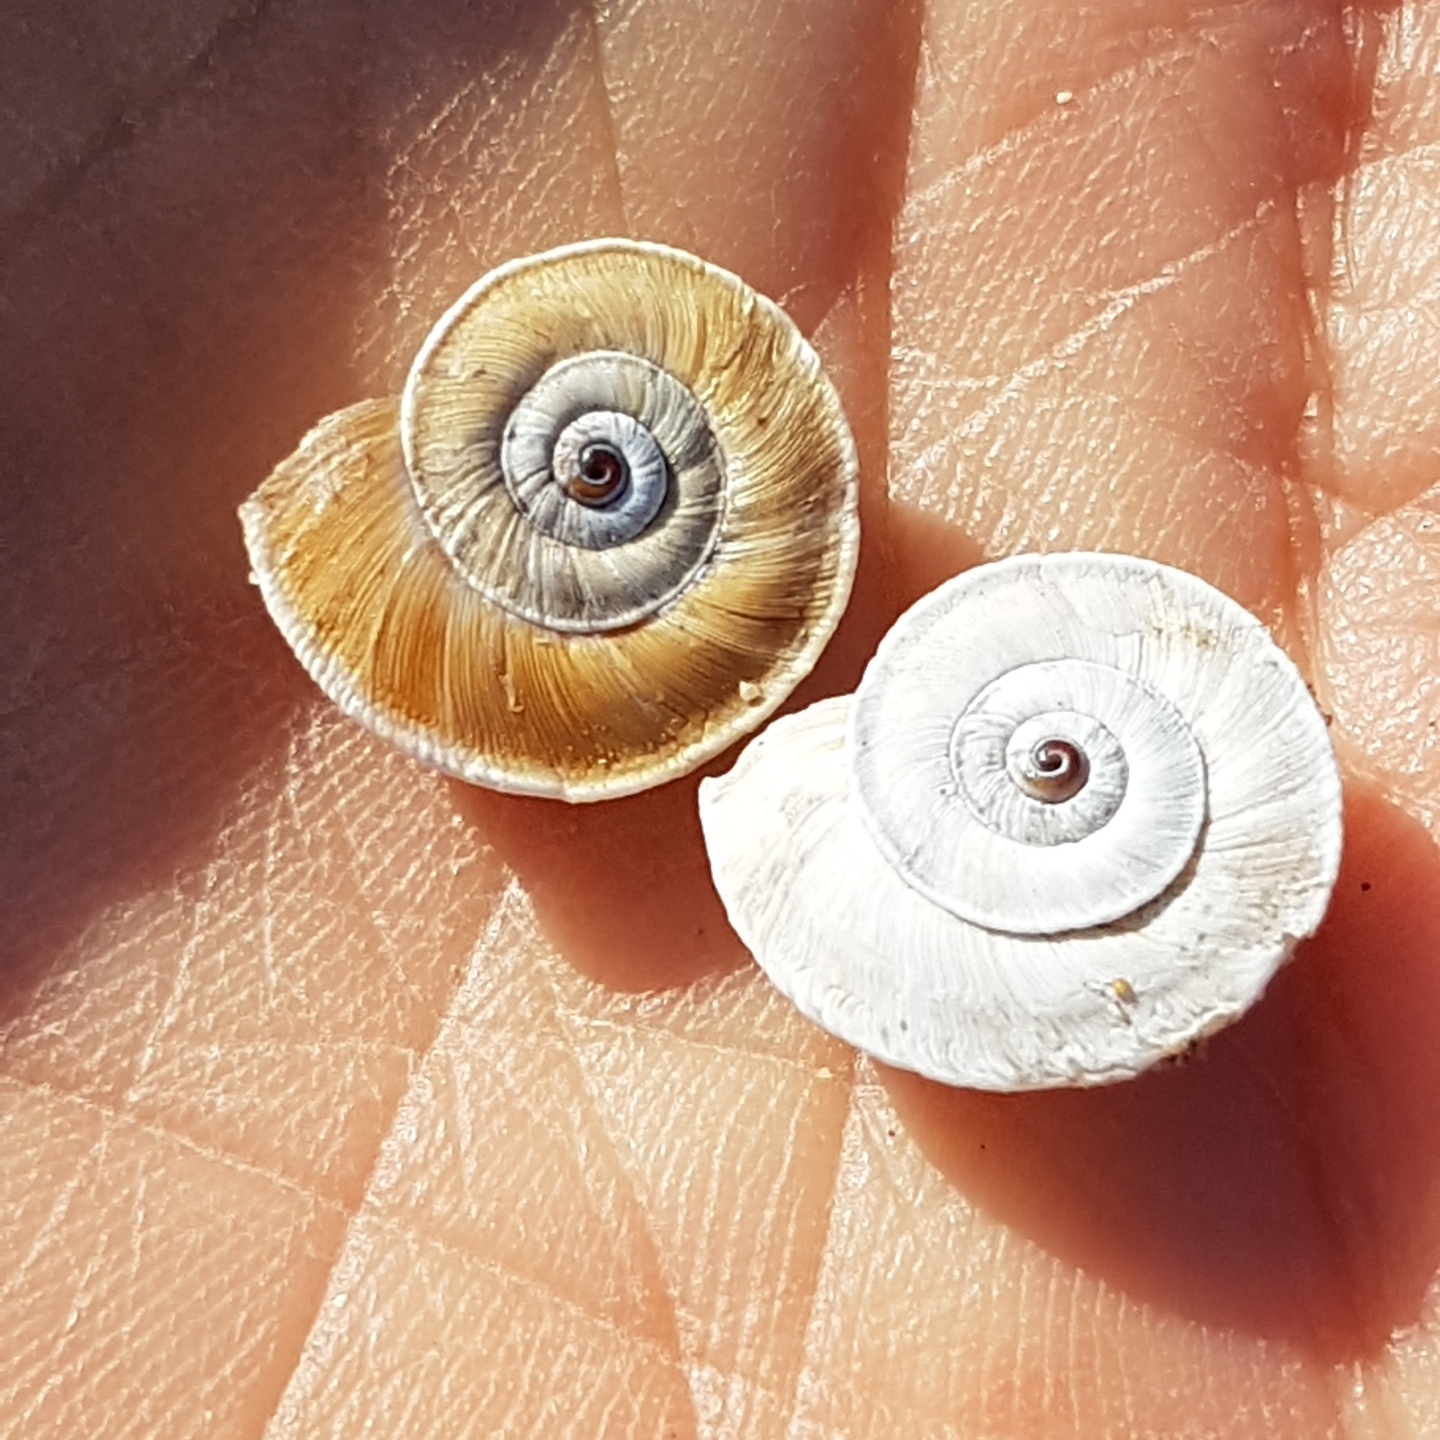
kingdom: Animalia
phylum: Mollusca
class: Gastropoda
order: Stylommatophora
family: Geomitridae
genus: Xerosecta
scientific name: Xerosecta explanata
